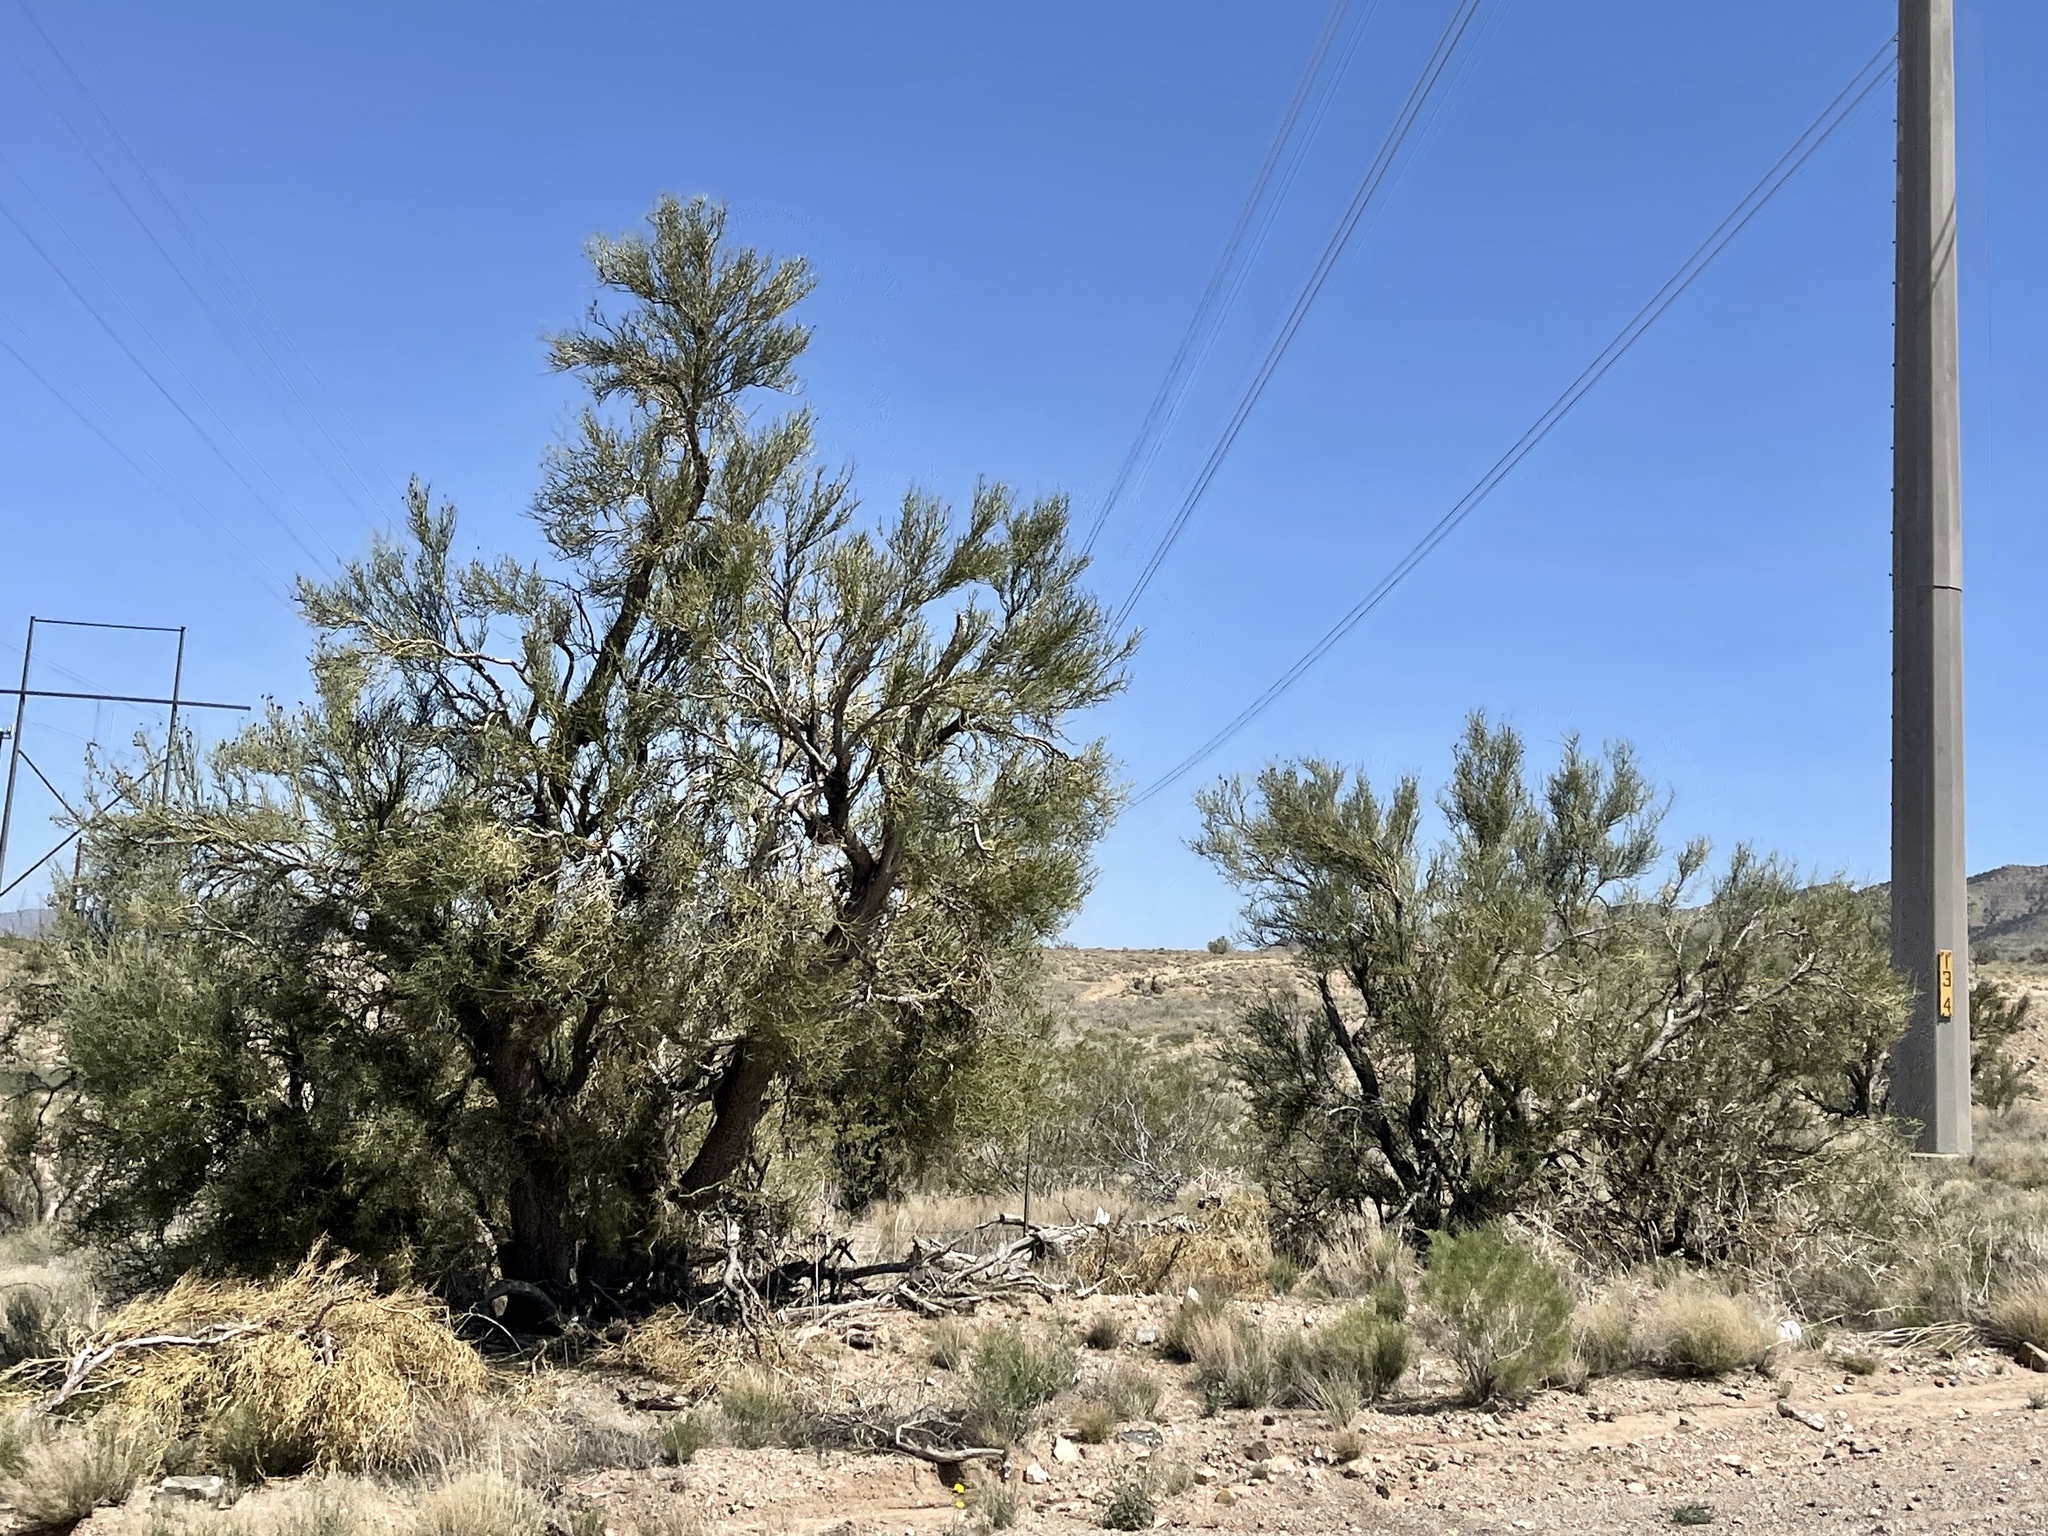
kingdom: Plantae
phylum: Tracheophyta
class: Magnoliopsida
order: Celastrales
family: Celastraceae
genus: Canotia
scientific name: Canotia holacantha
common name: Crucifixion thorns
